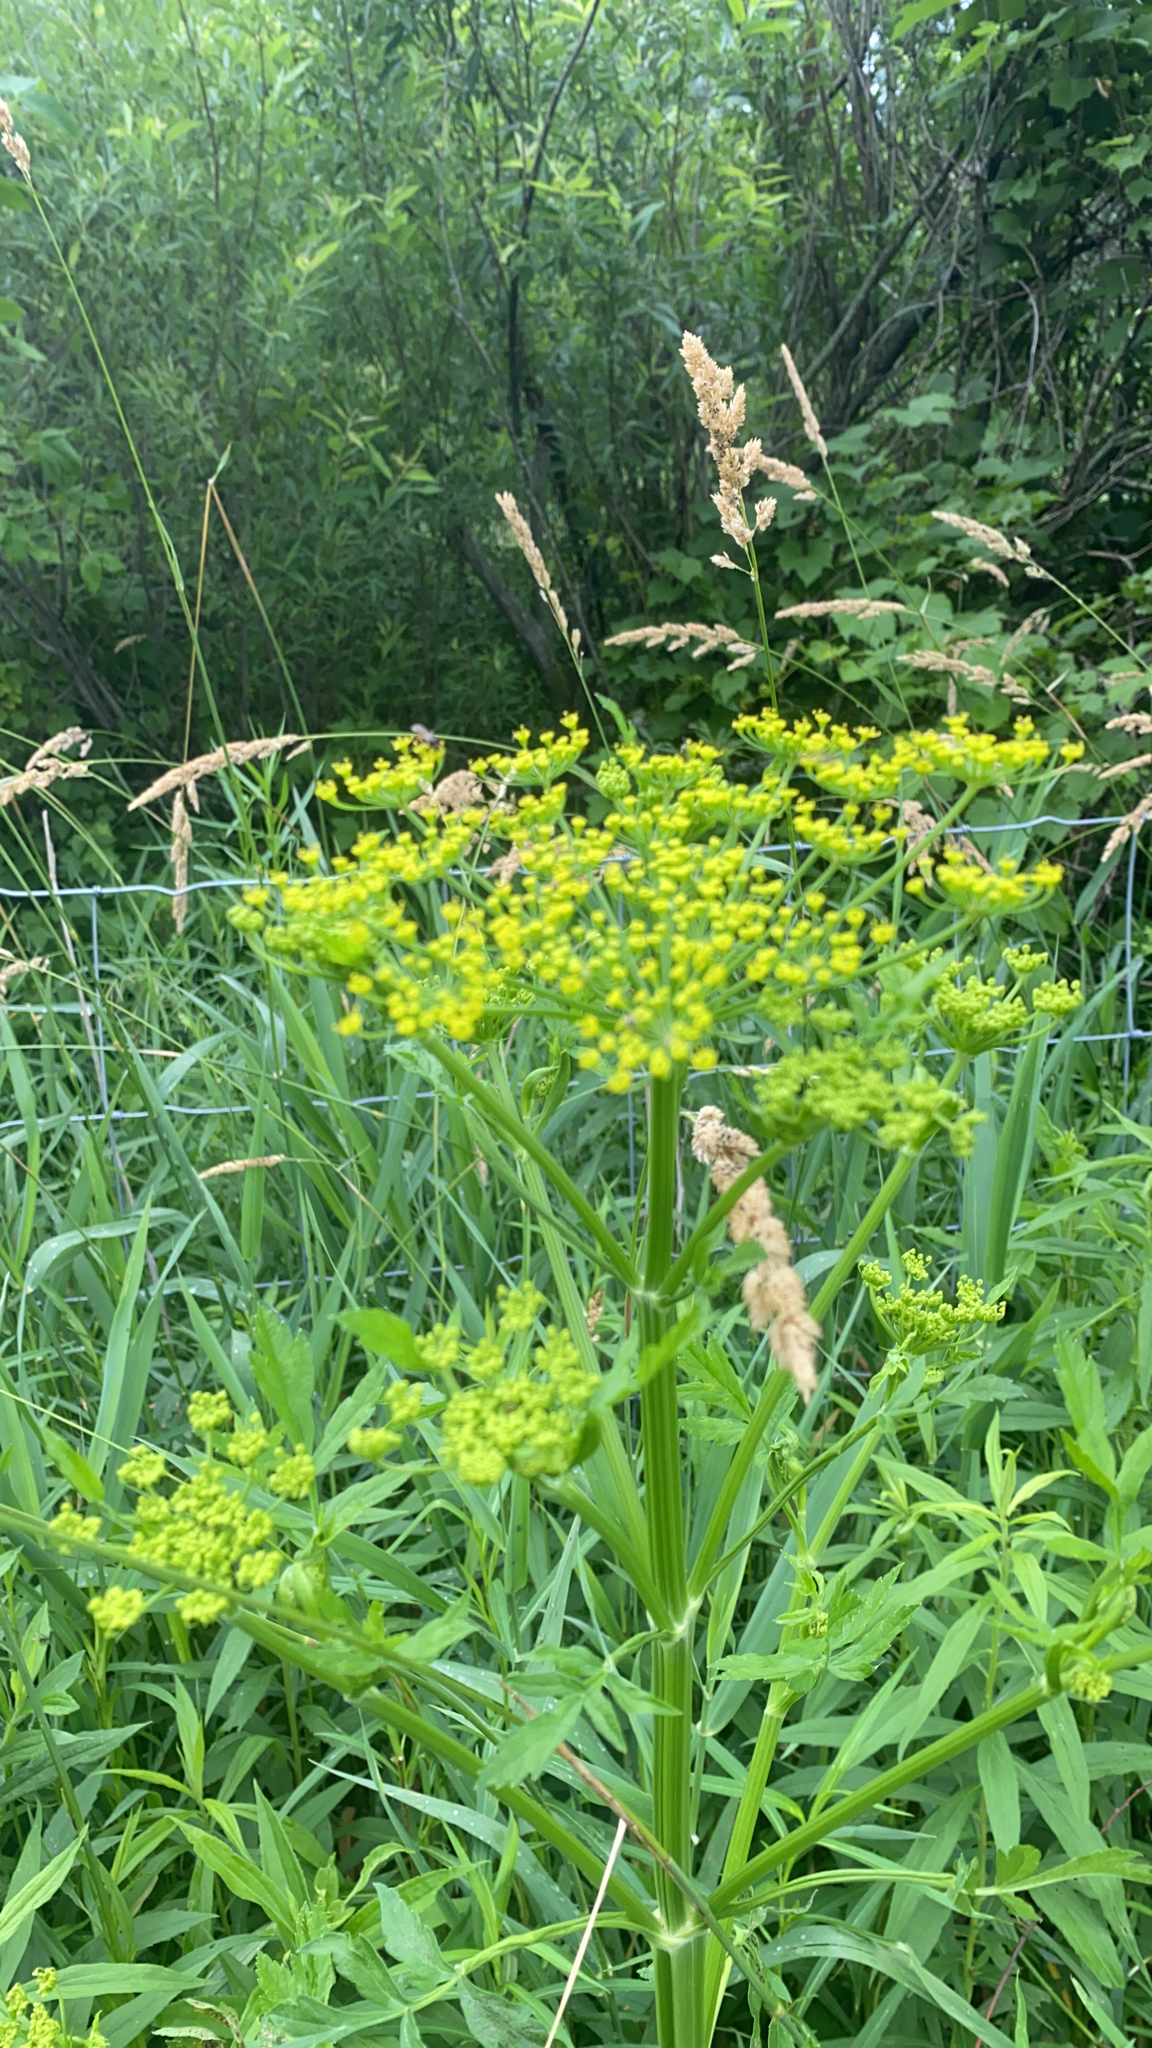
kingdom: Plantae
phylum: Tracheophyta
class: Magnoliopsida
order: Apiales
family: Apiaceae
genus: Pastinaca
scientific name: Pastinaca sativa
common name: Wild parsnip
